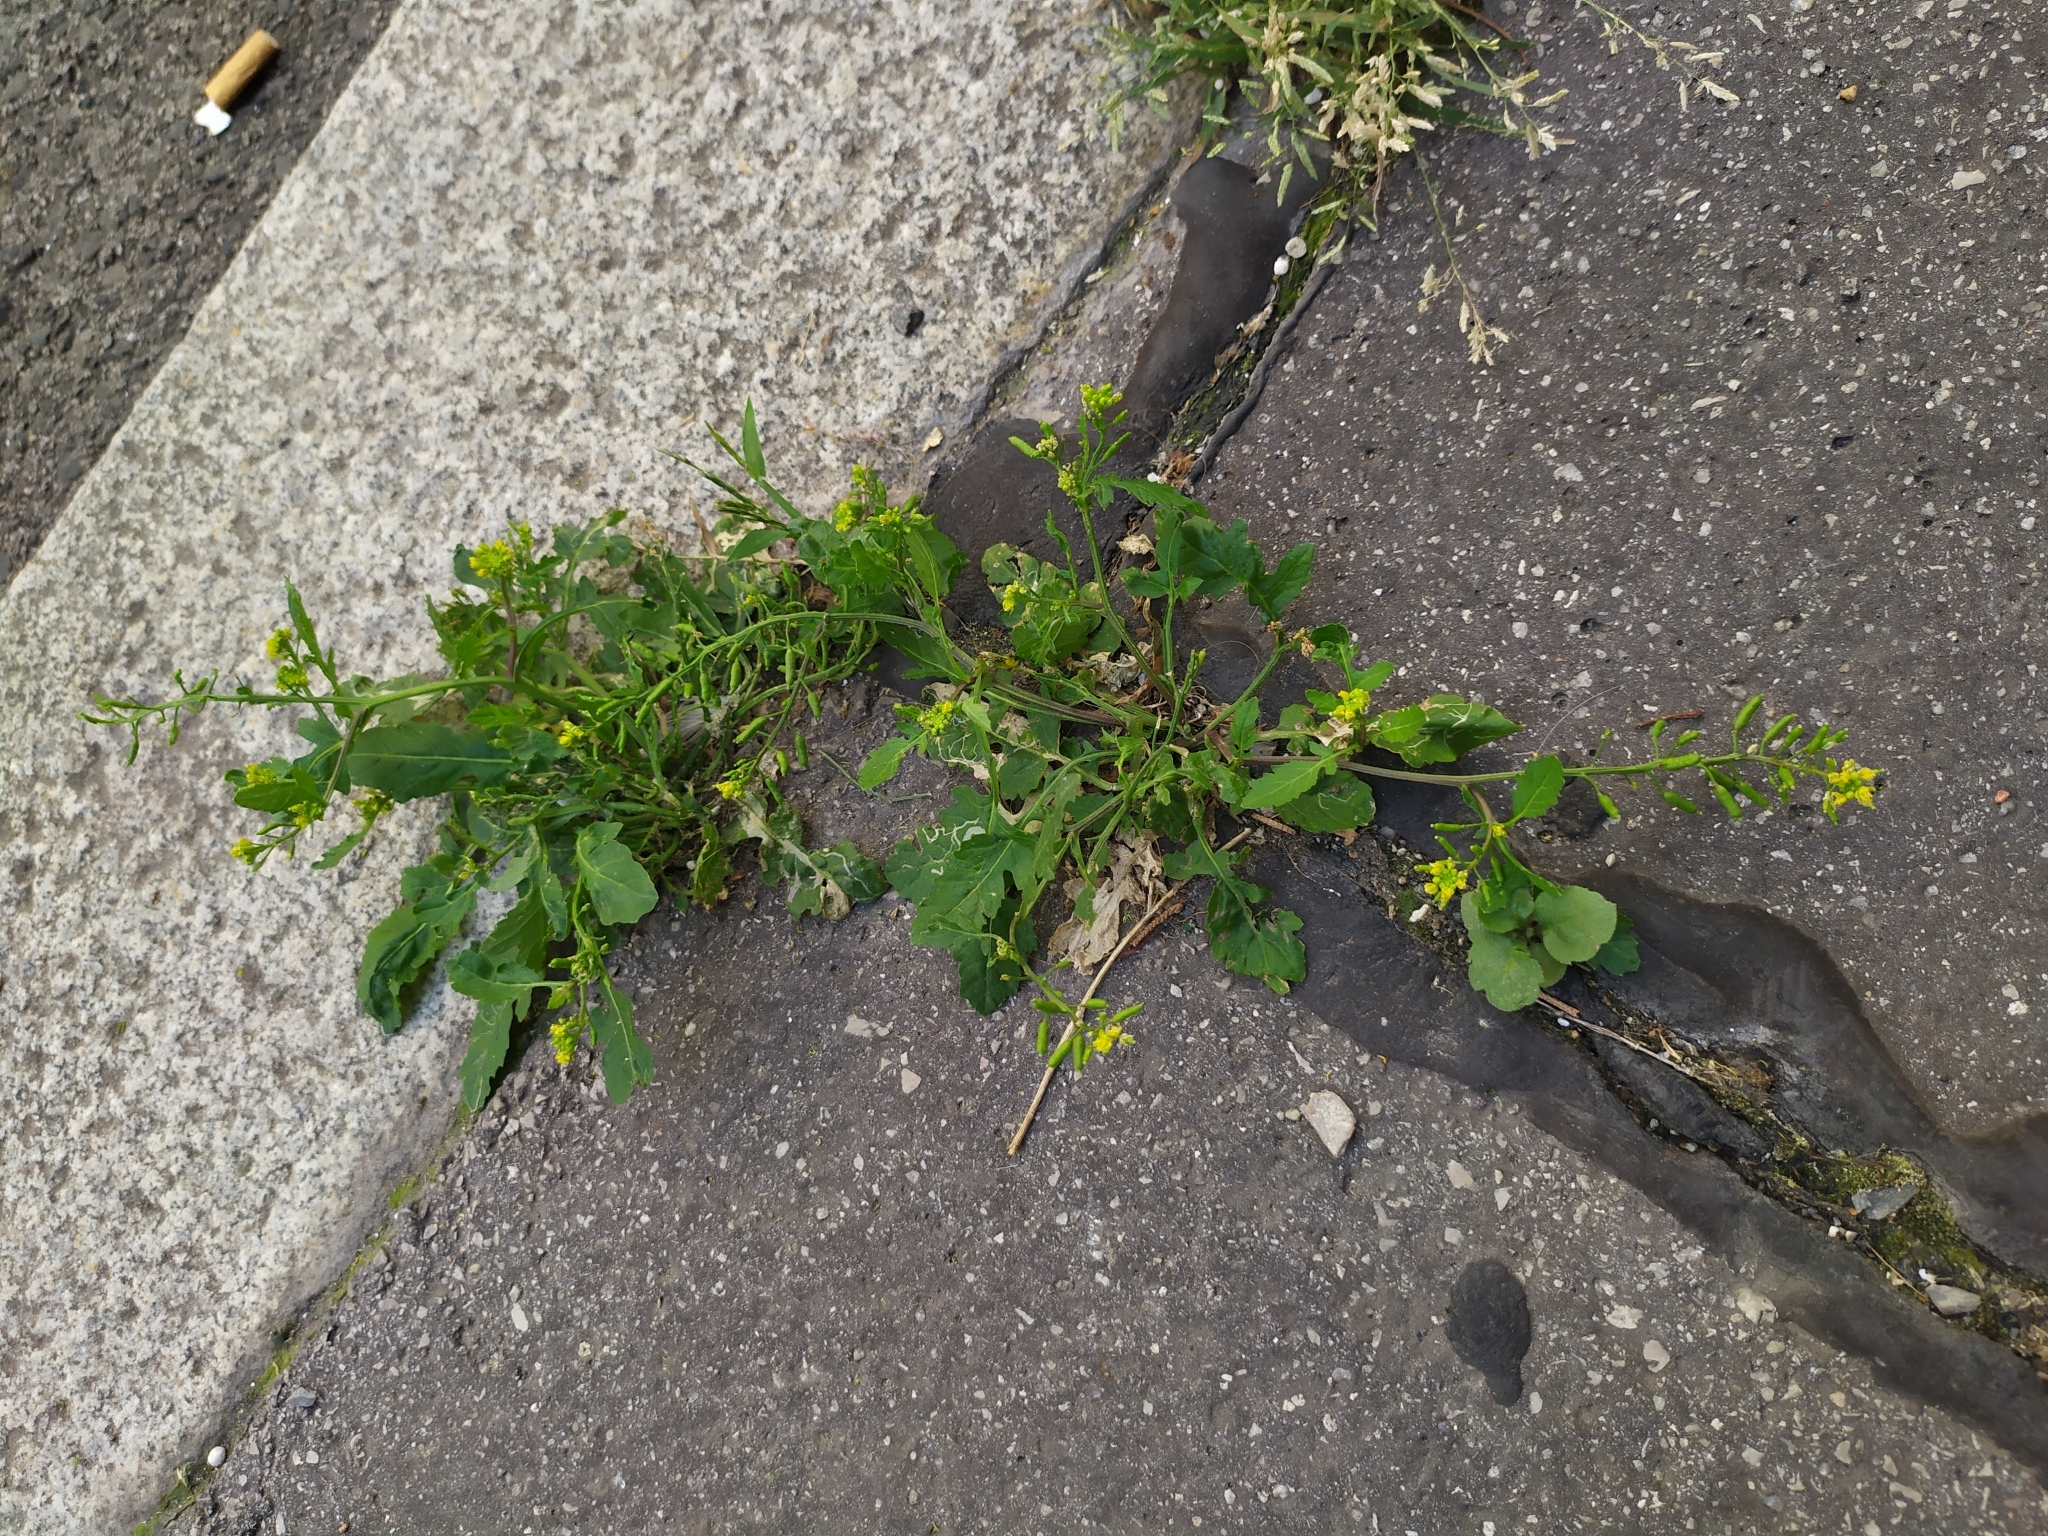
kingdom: Plantae
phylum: Tracheophyta
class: Magnoliopsida
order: Brassicales
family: Brassicaceae
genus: Rorippa
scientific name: Rorippa palustris
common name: Marsh yellow-cress
